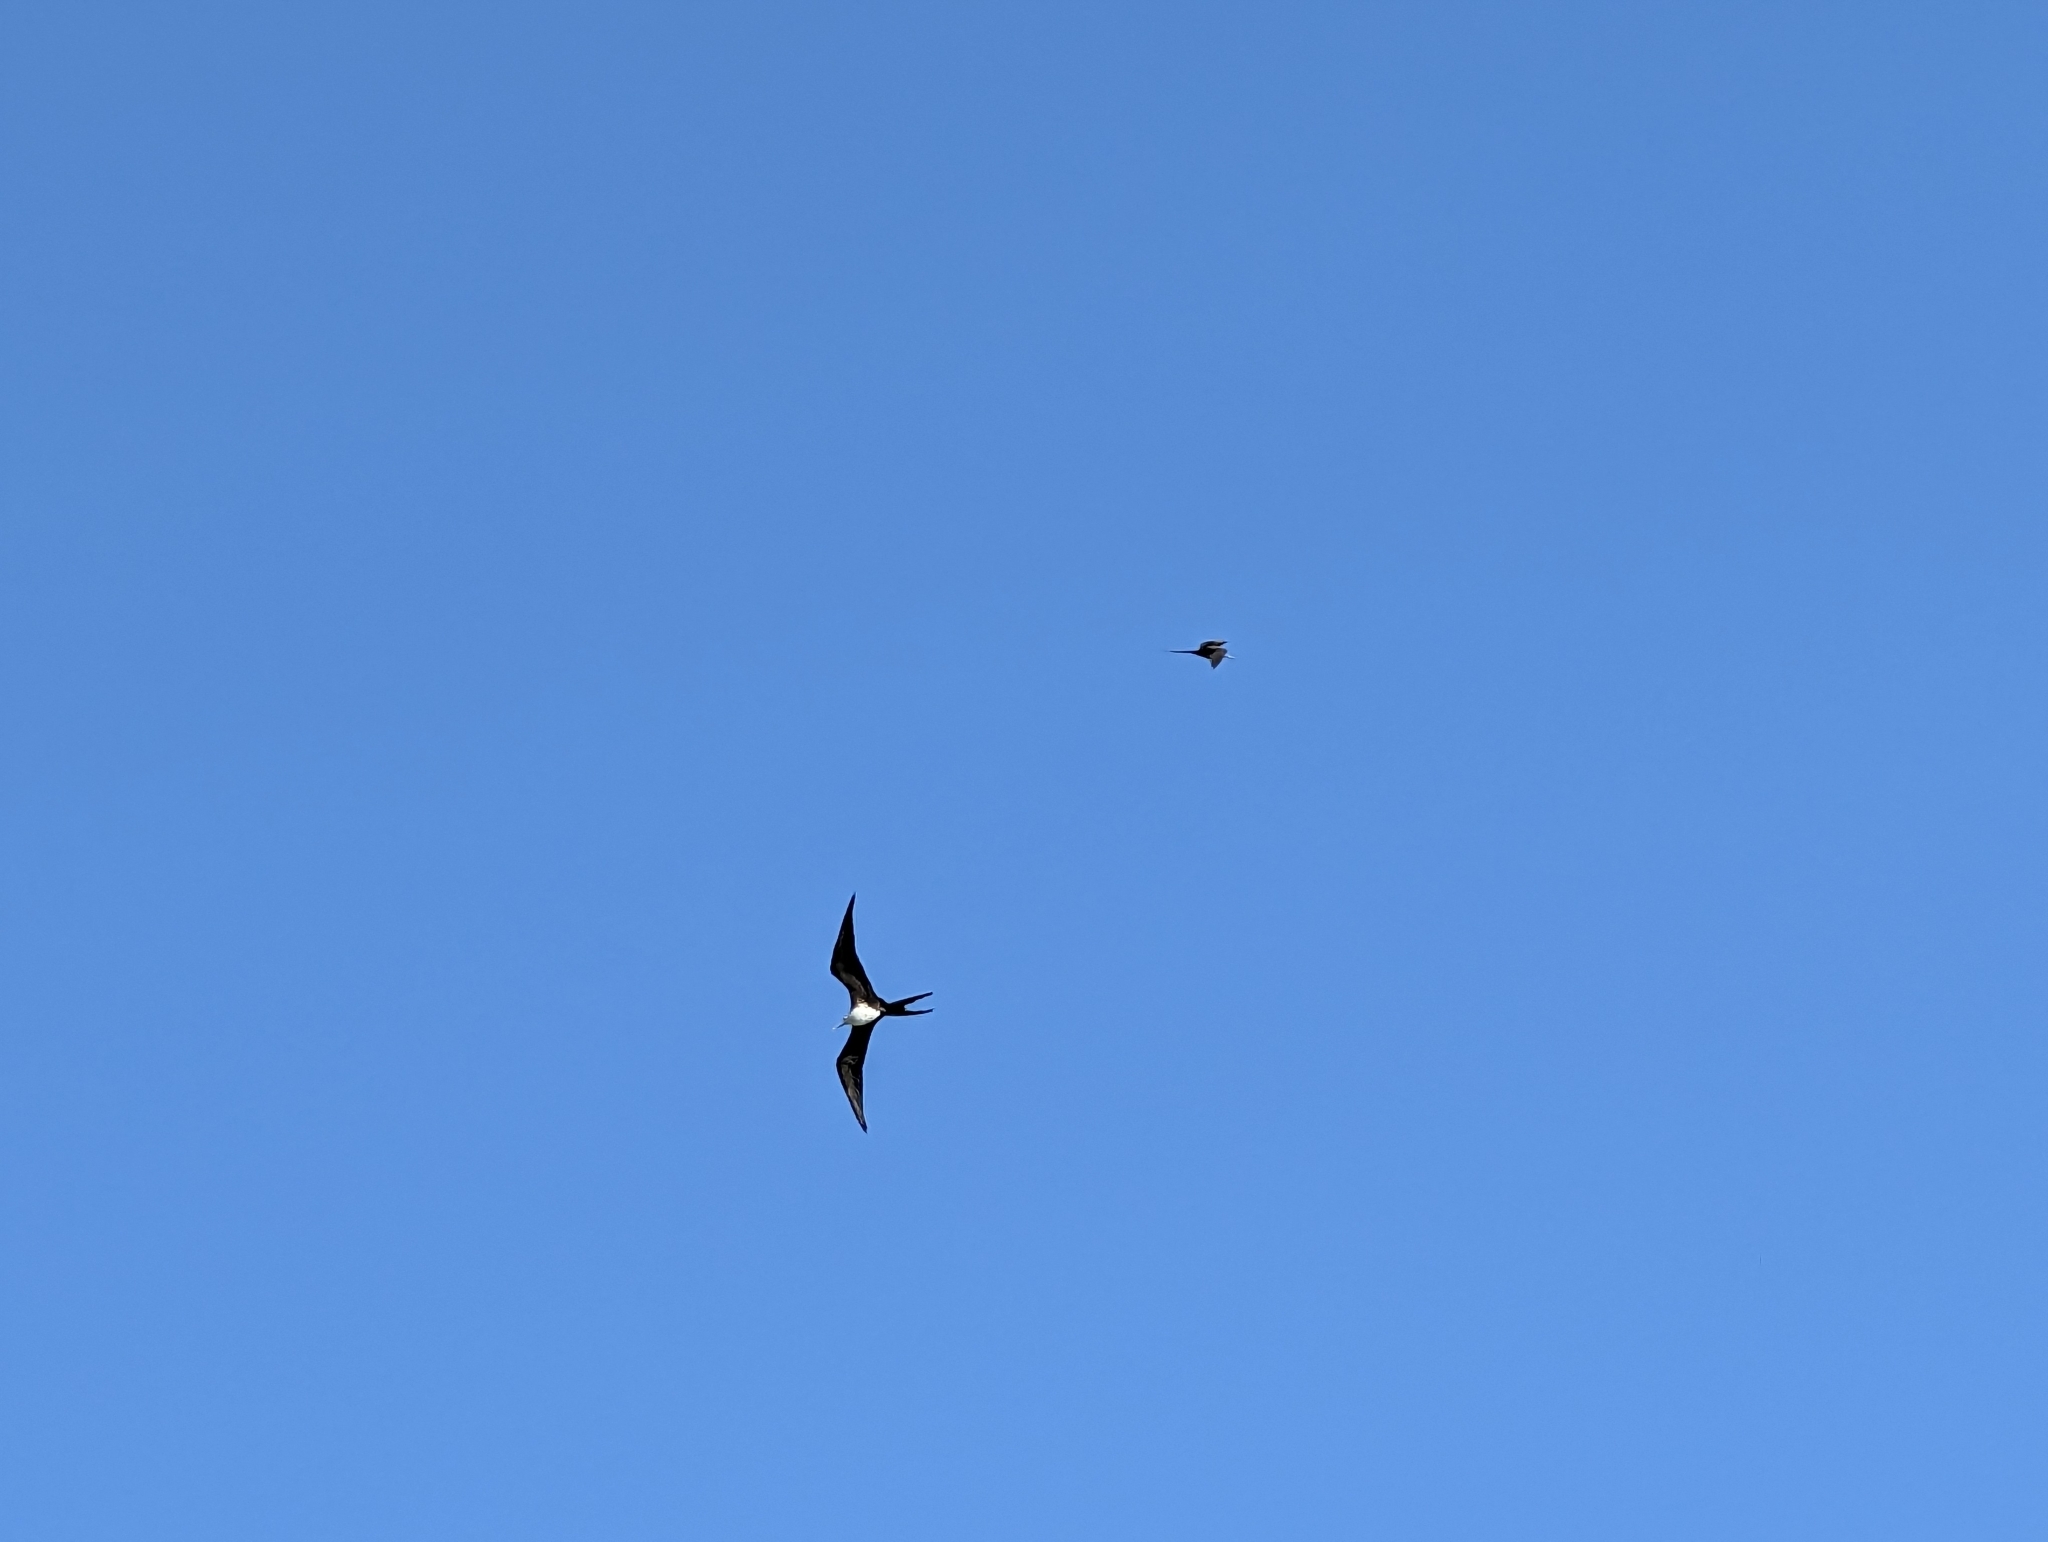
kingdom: Animalia
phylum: Chordata
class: Aves
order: Suliformes
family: Fregatidae
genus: Fregata
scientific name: Fregata magnificens
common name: Magnificent frigatebird
